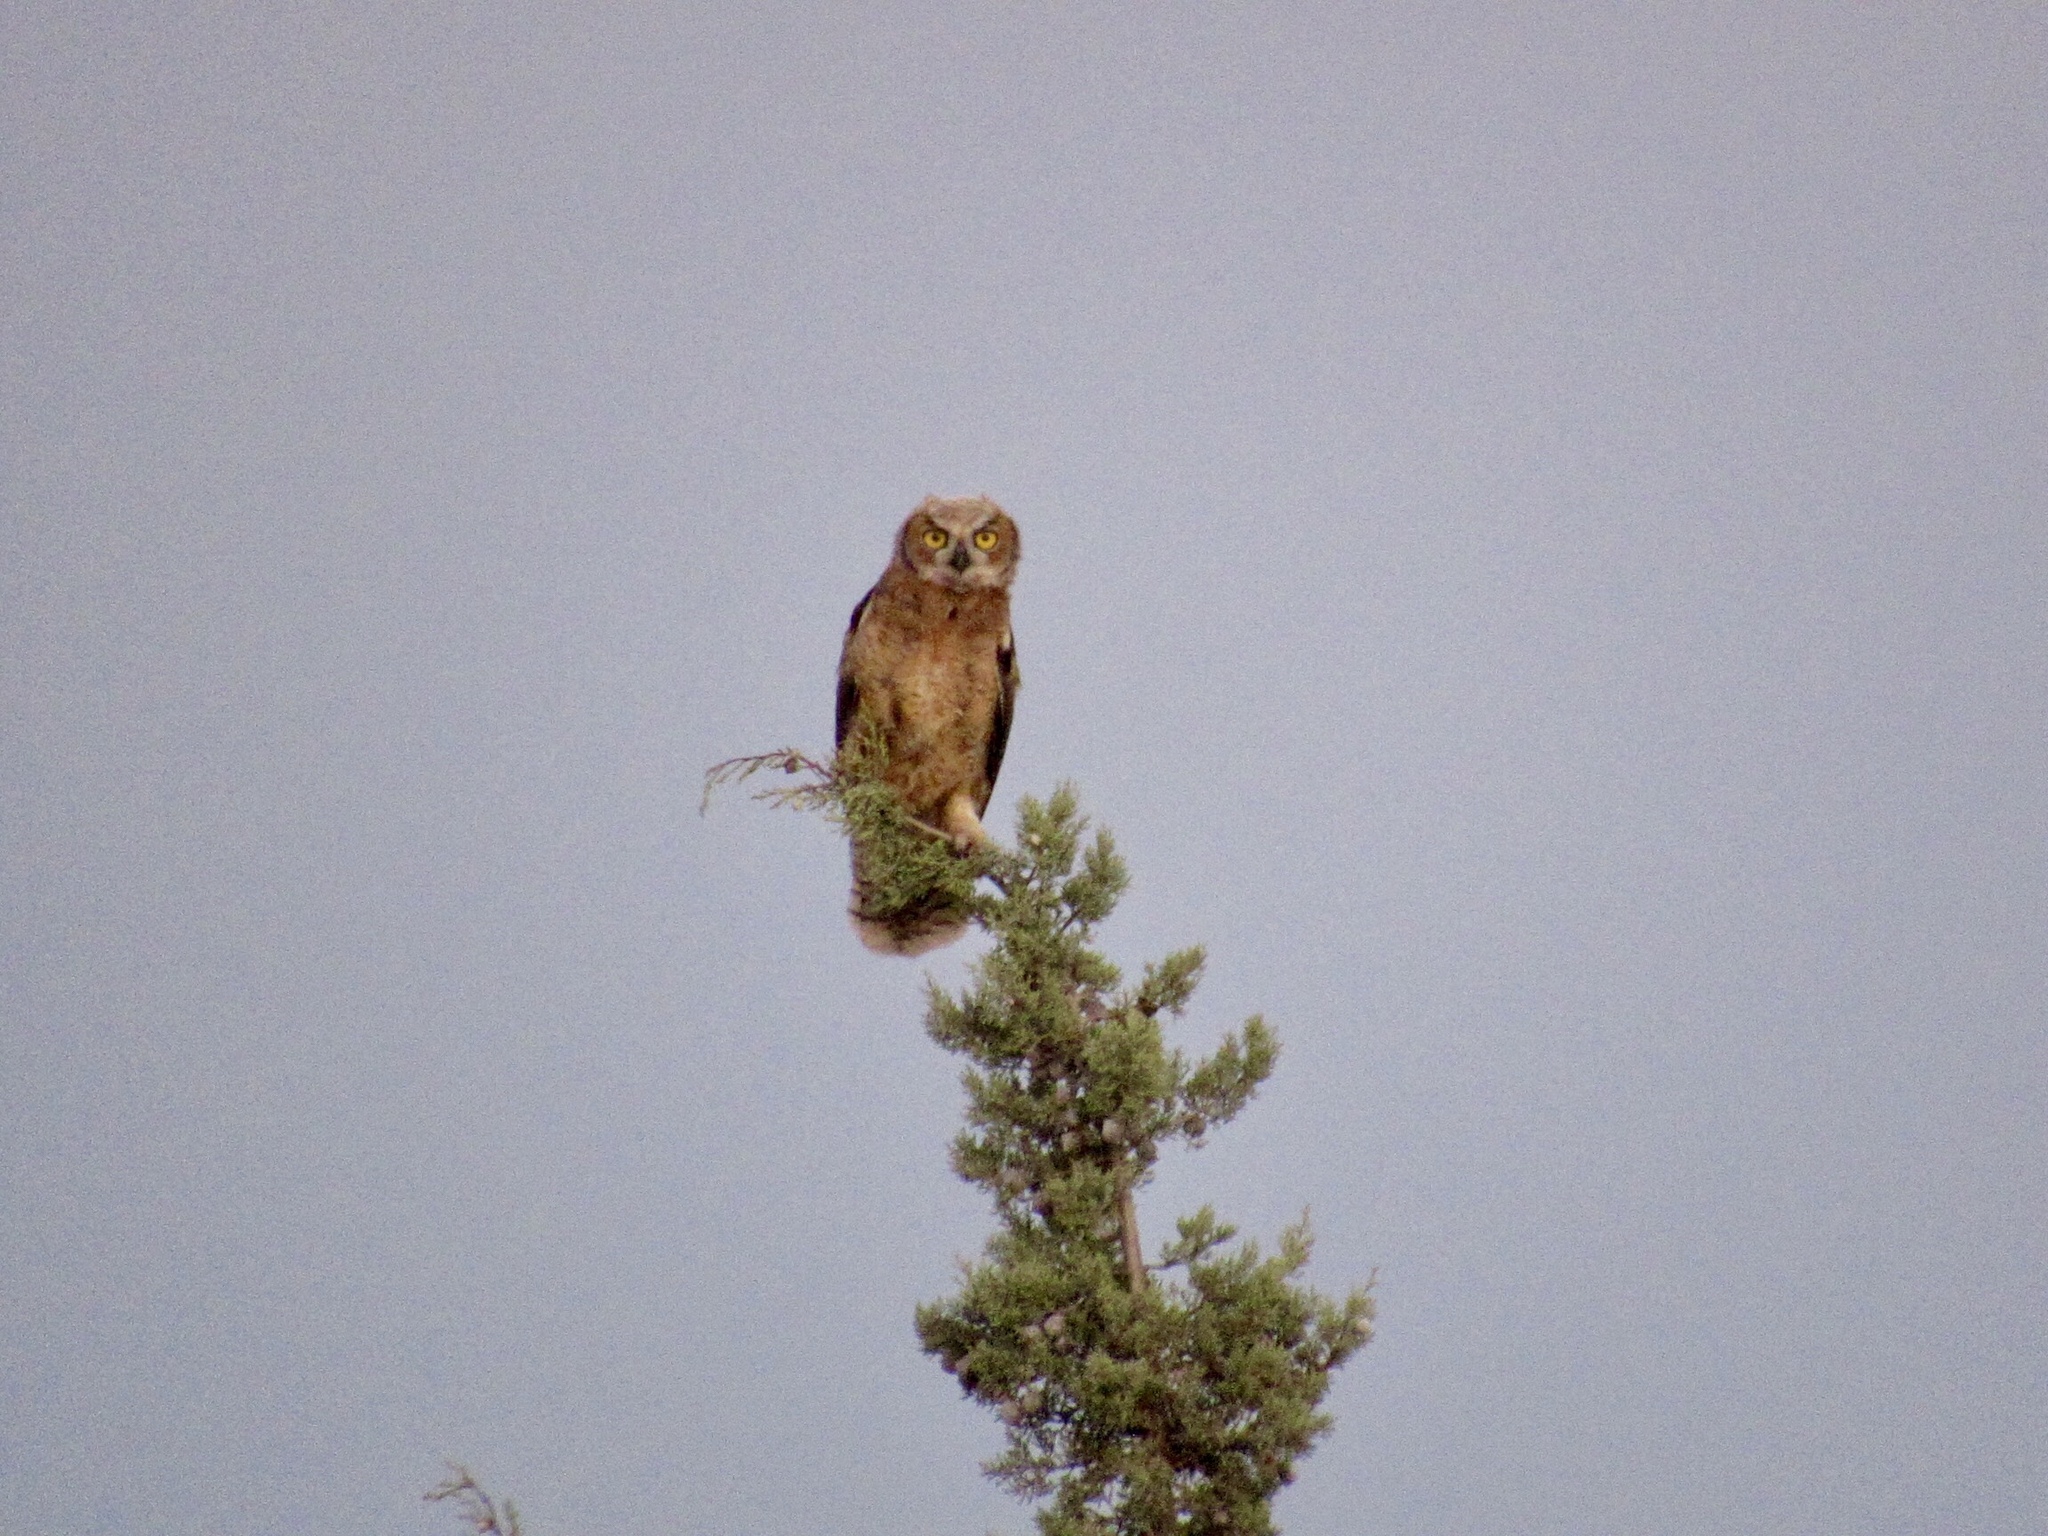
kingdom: Animalia
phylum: Chordata
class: Aves
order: Strigiformes
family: Strigidae
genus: Bubo
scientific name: Bubo virginianus
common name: Great horned owl
